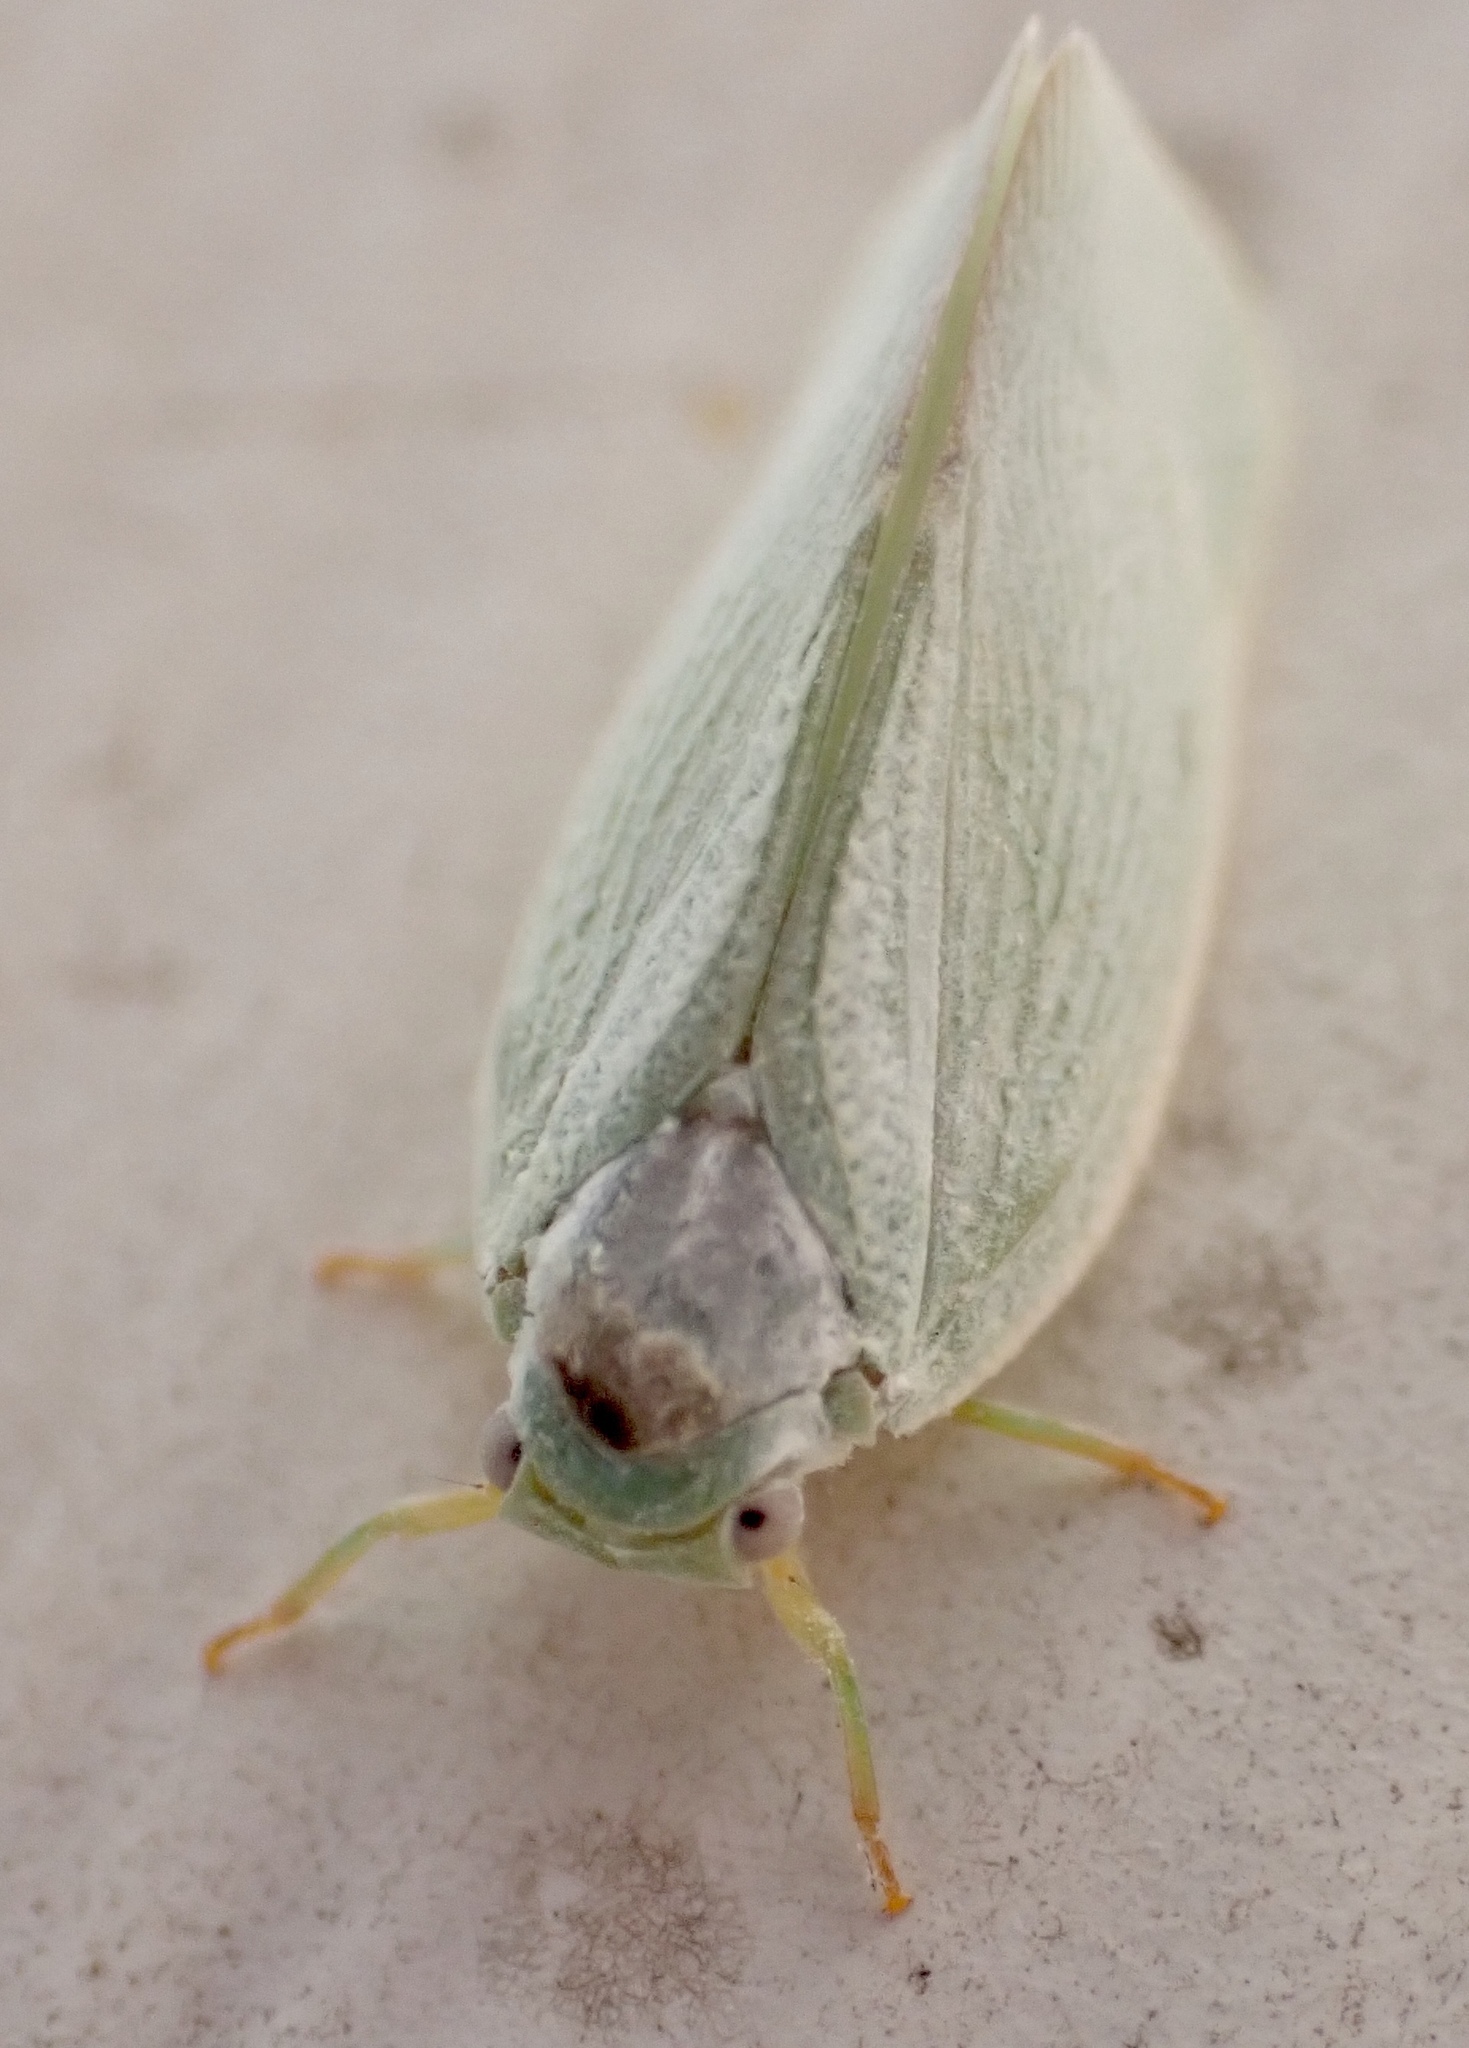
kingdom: Animalia
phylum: Arthropoda
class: Insecta
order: Hemiptera
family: Flatidae
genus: Flatormenis
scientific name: Flatormenis proxima
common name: Northern flatid planthopper
